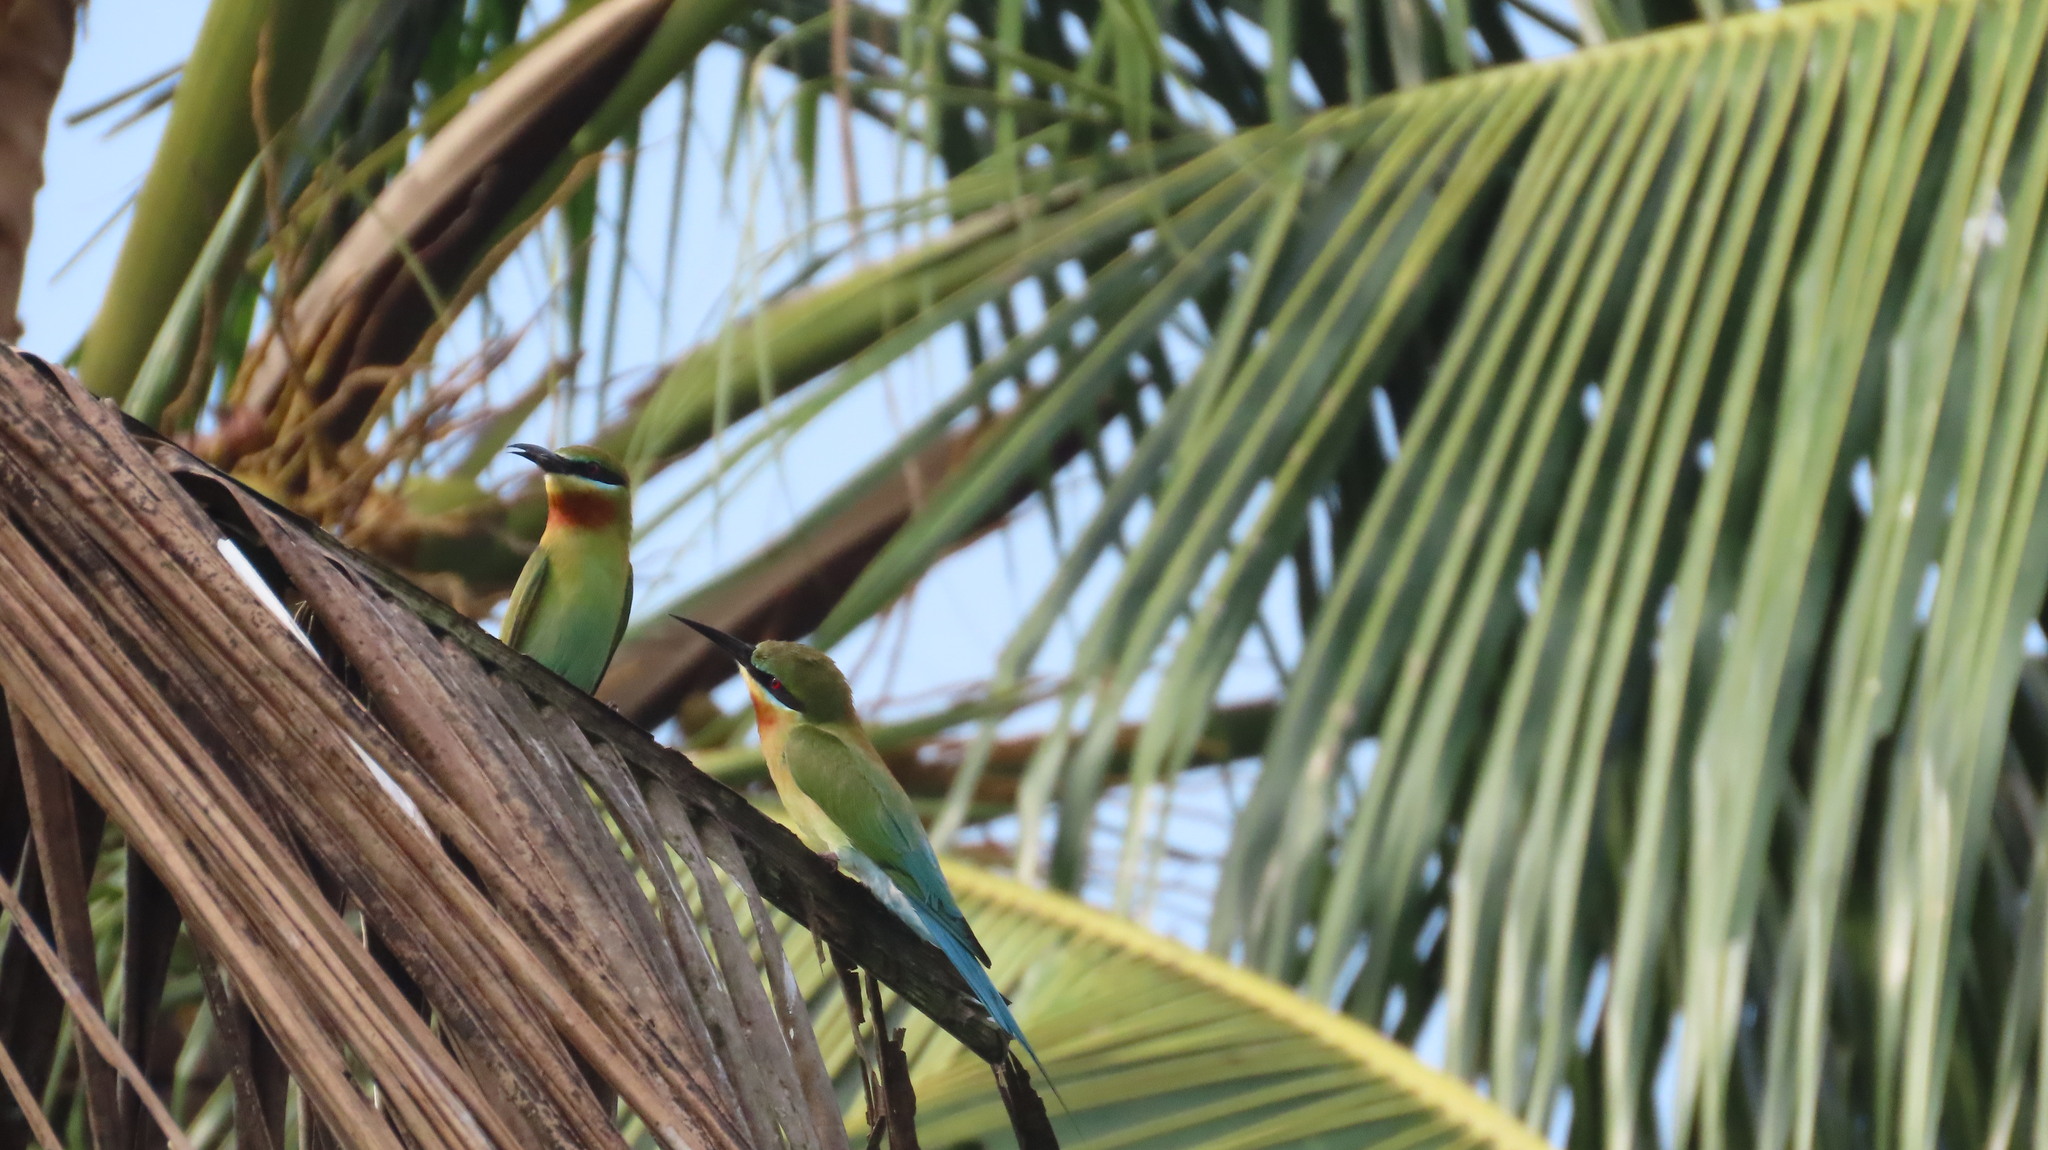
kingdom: Animalia
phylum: Chordata
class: Aves
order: Coraciiformes
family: Meropidae
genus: Merops
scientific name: Merops philippinus
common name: Blue-tailed bee-eater
